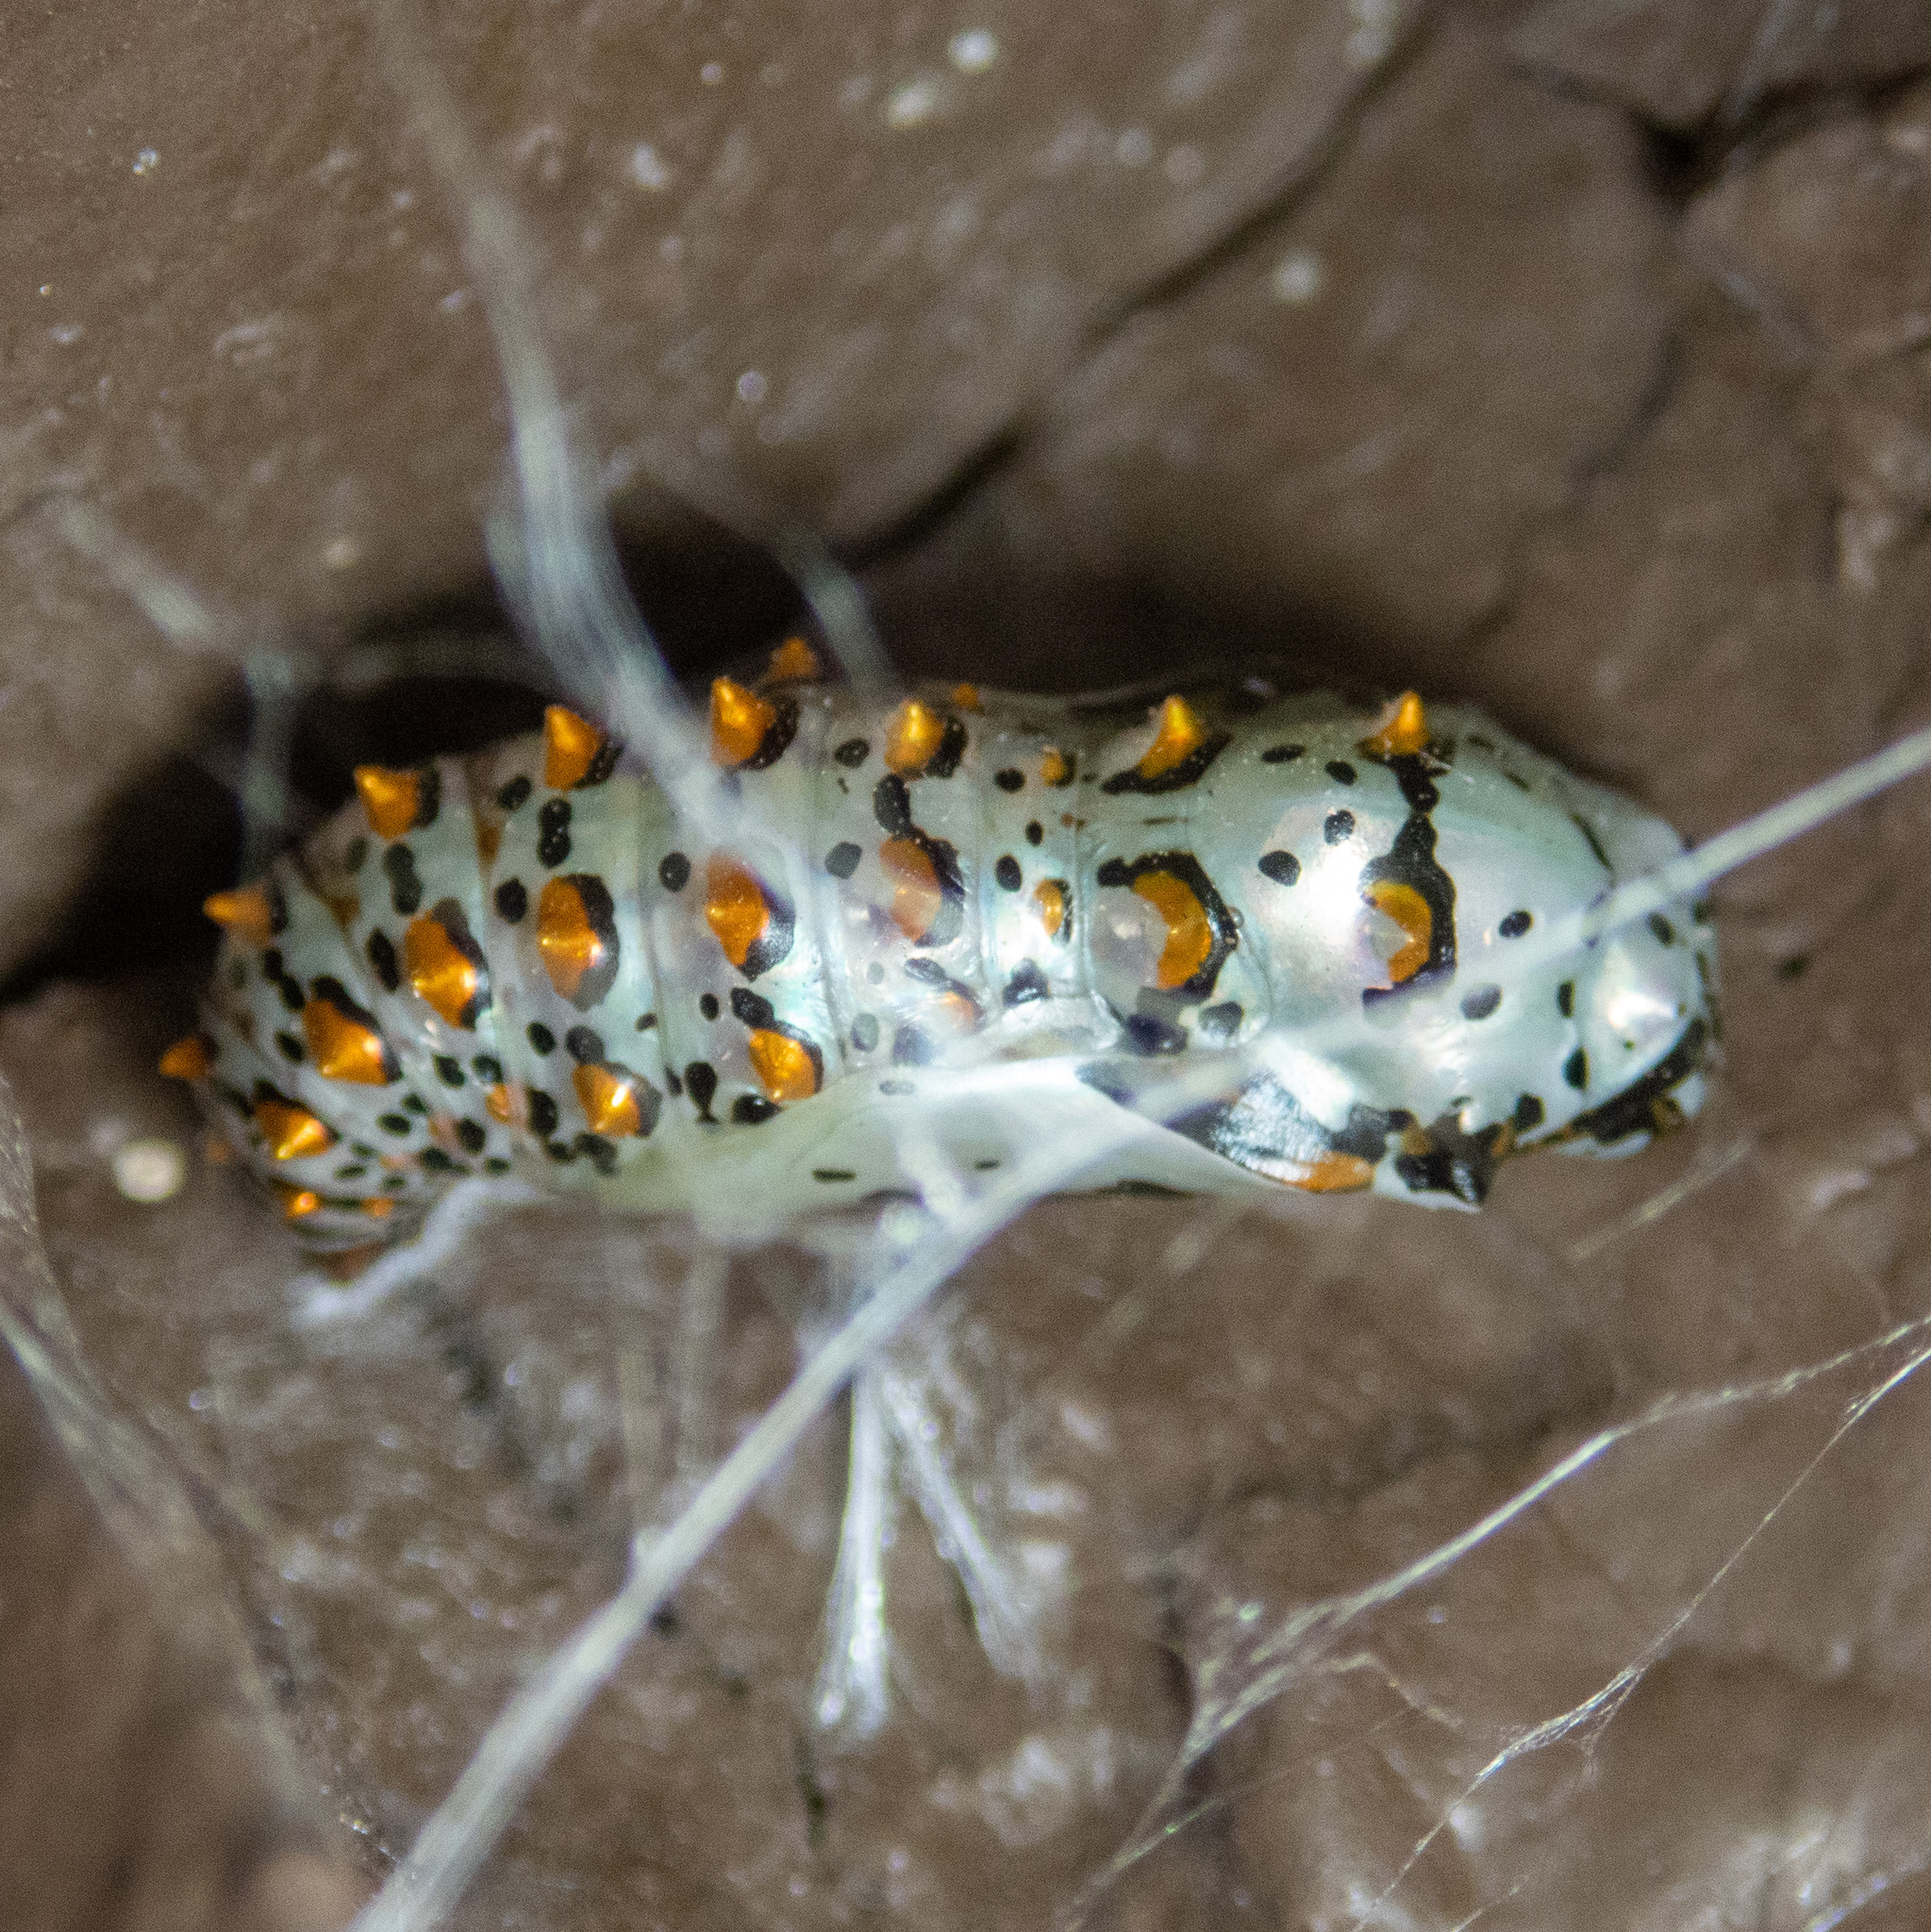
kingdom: Animalia
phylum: Arthropoda
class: Insecta
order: Lepidoptera
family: Nymphalidae
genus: Euptoieta
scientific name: Euptoieta claudia
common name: Variegated fritillary
